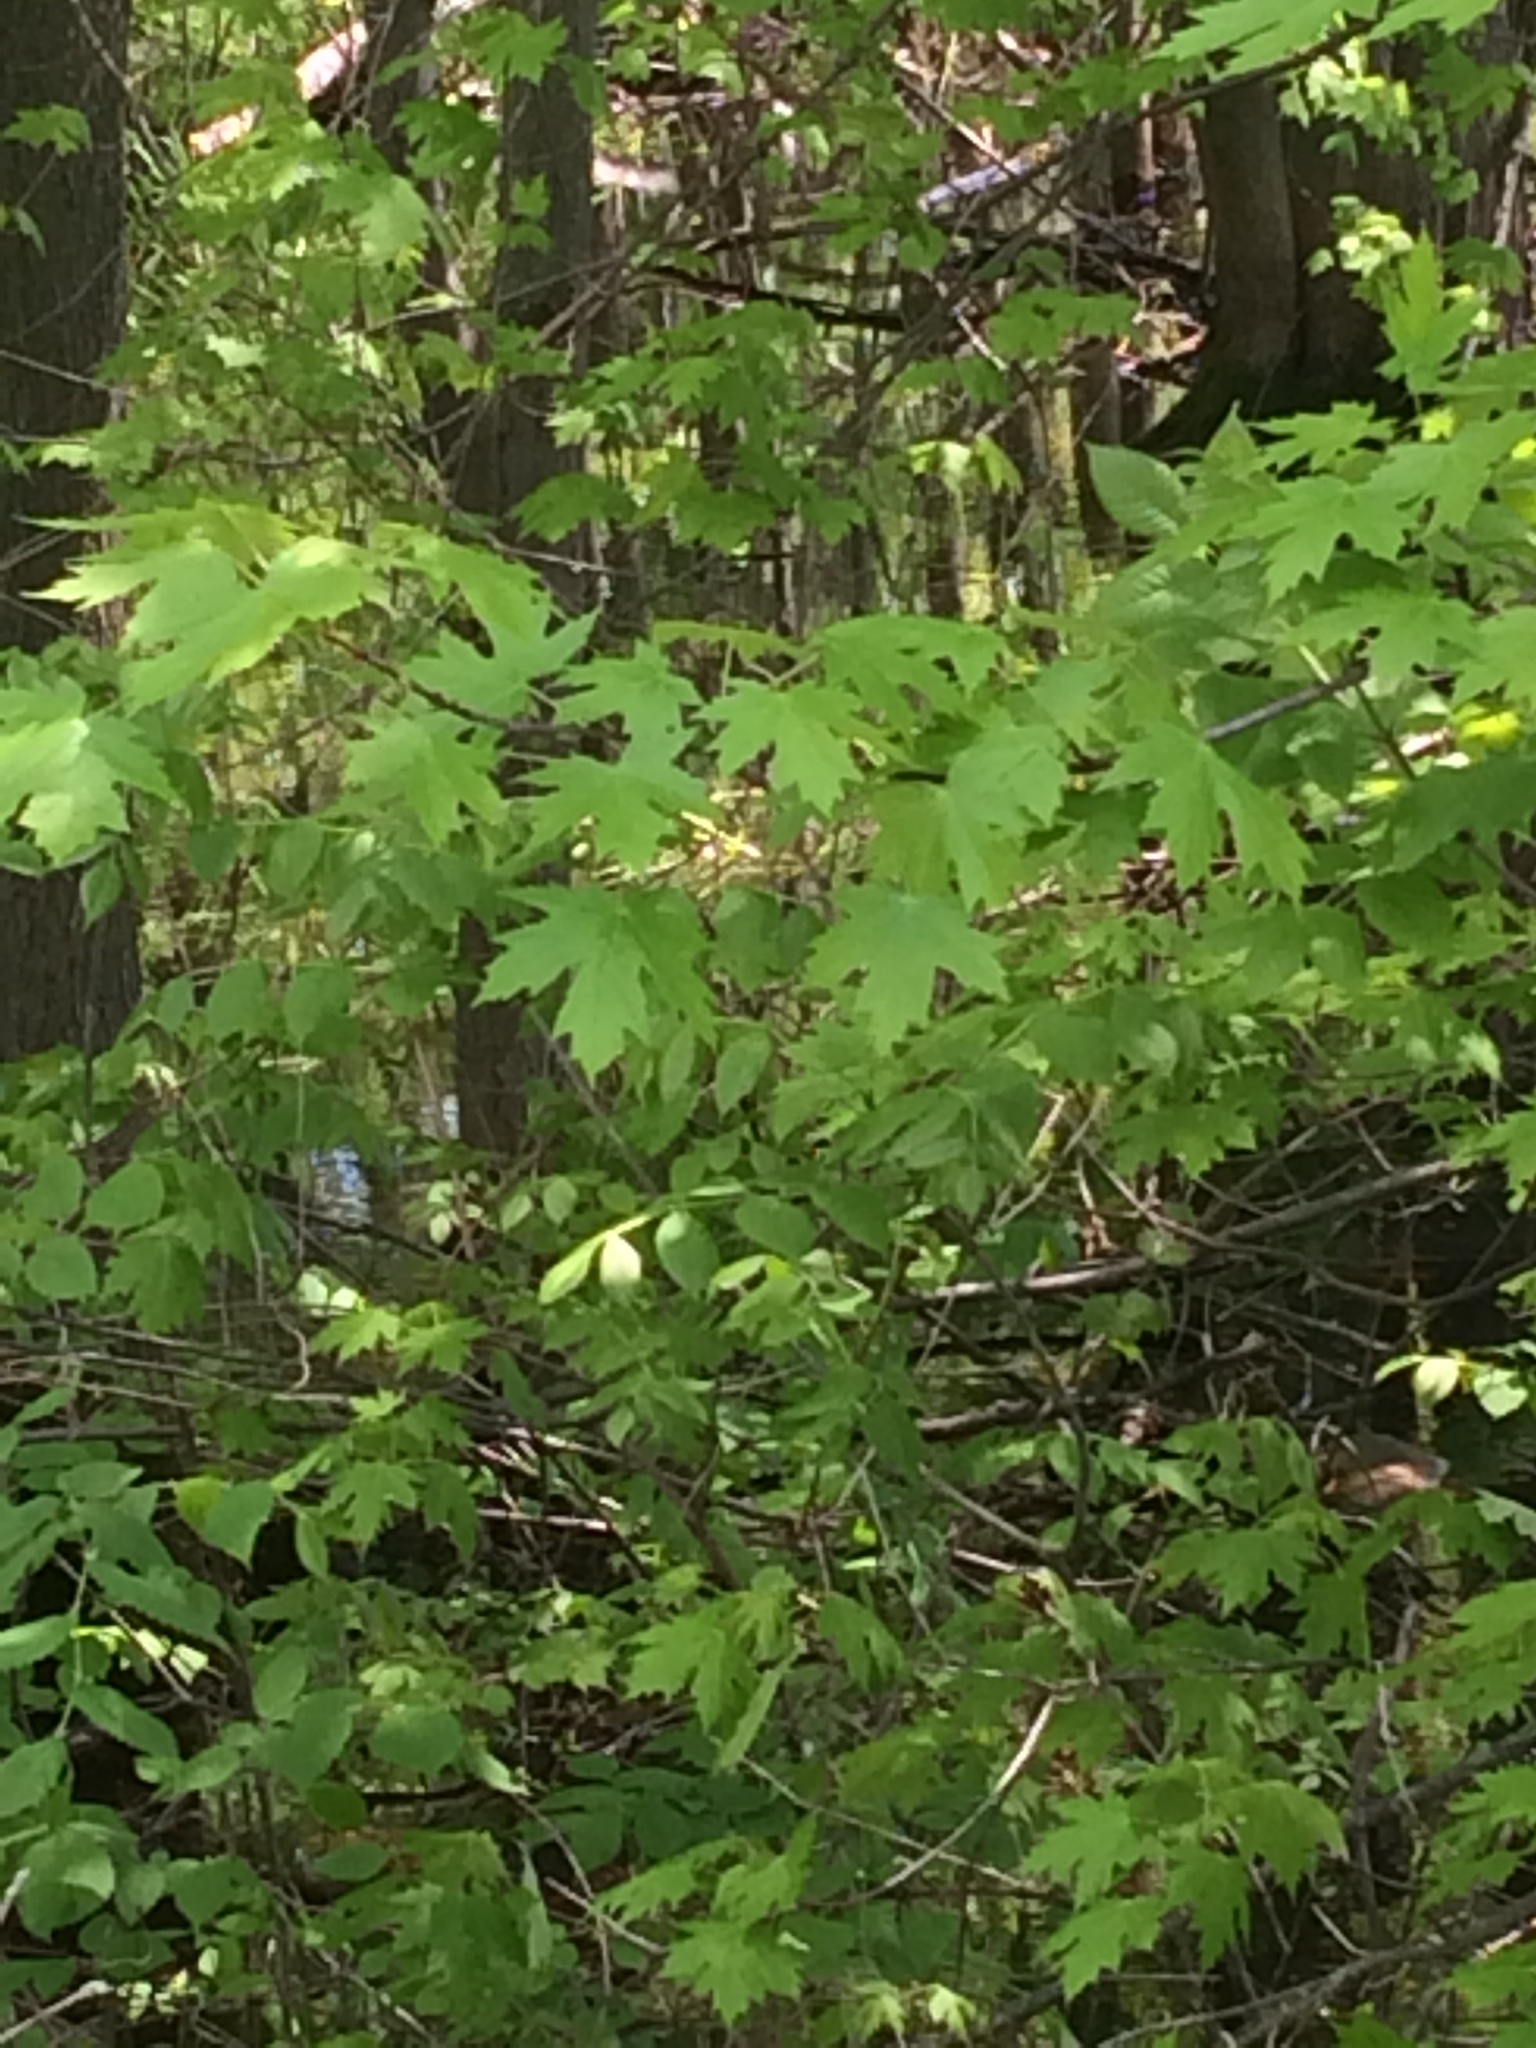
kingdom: Plantae
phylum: Tracheophyta
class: Magnoliopsida
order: Sapindales
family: Sapindaceae
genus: Acer
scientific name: Acer saccharinum
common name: Silver maple
